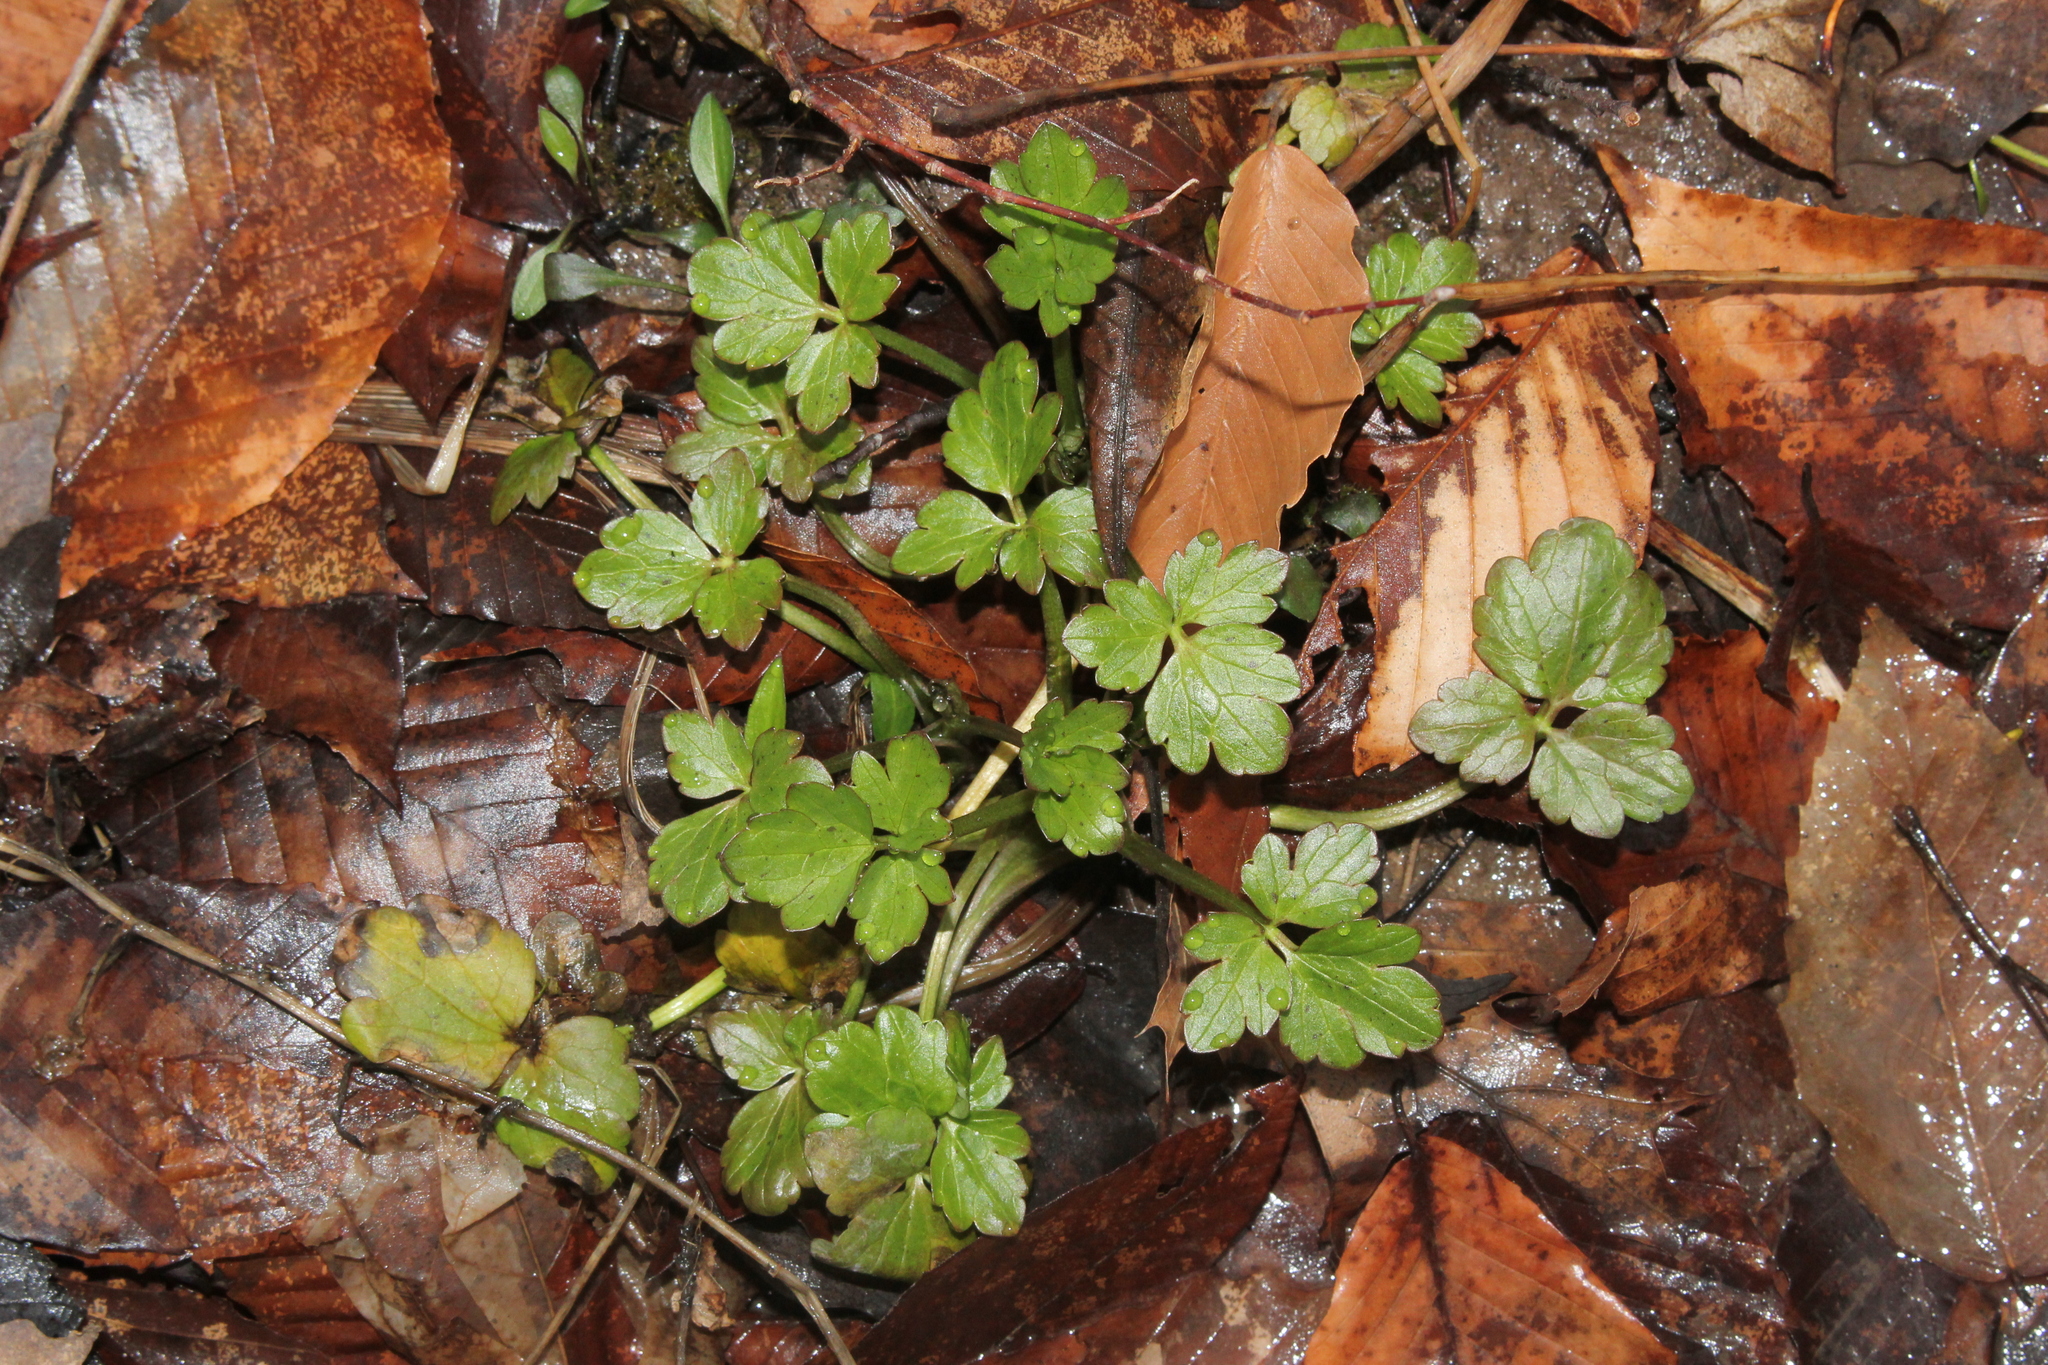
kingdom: Plantae
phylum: Tracheophyta
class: Magnoliopsida
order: Ranunculales
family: Ranunculaceae
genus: Ranunculus
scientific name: Ranunculus repens
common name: Creeping buttercup
